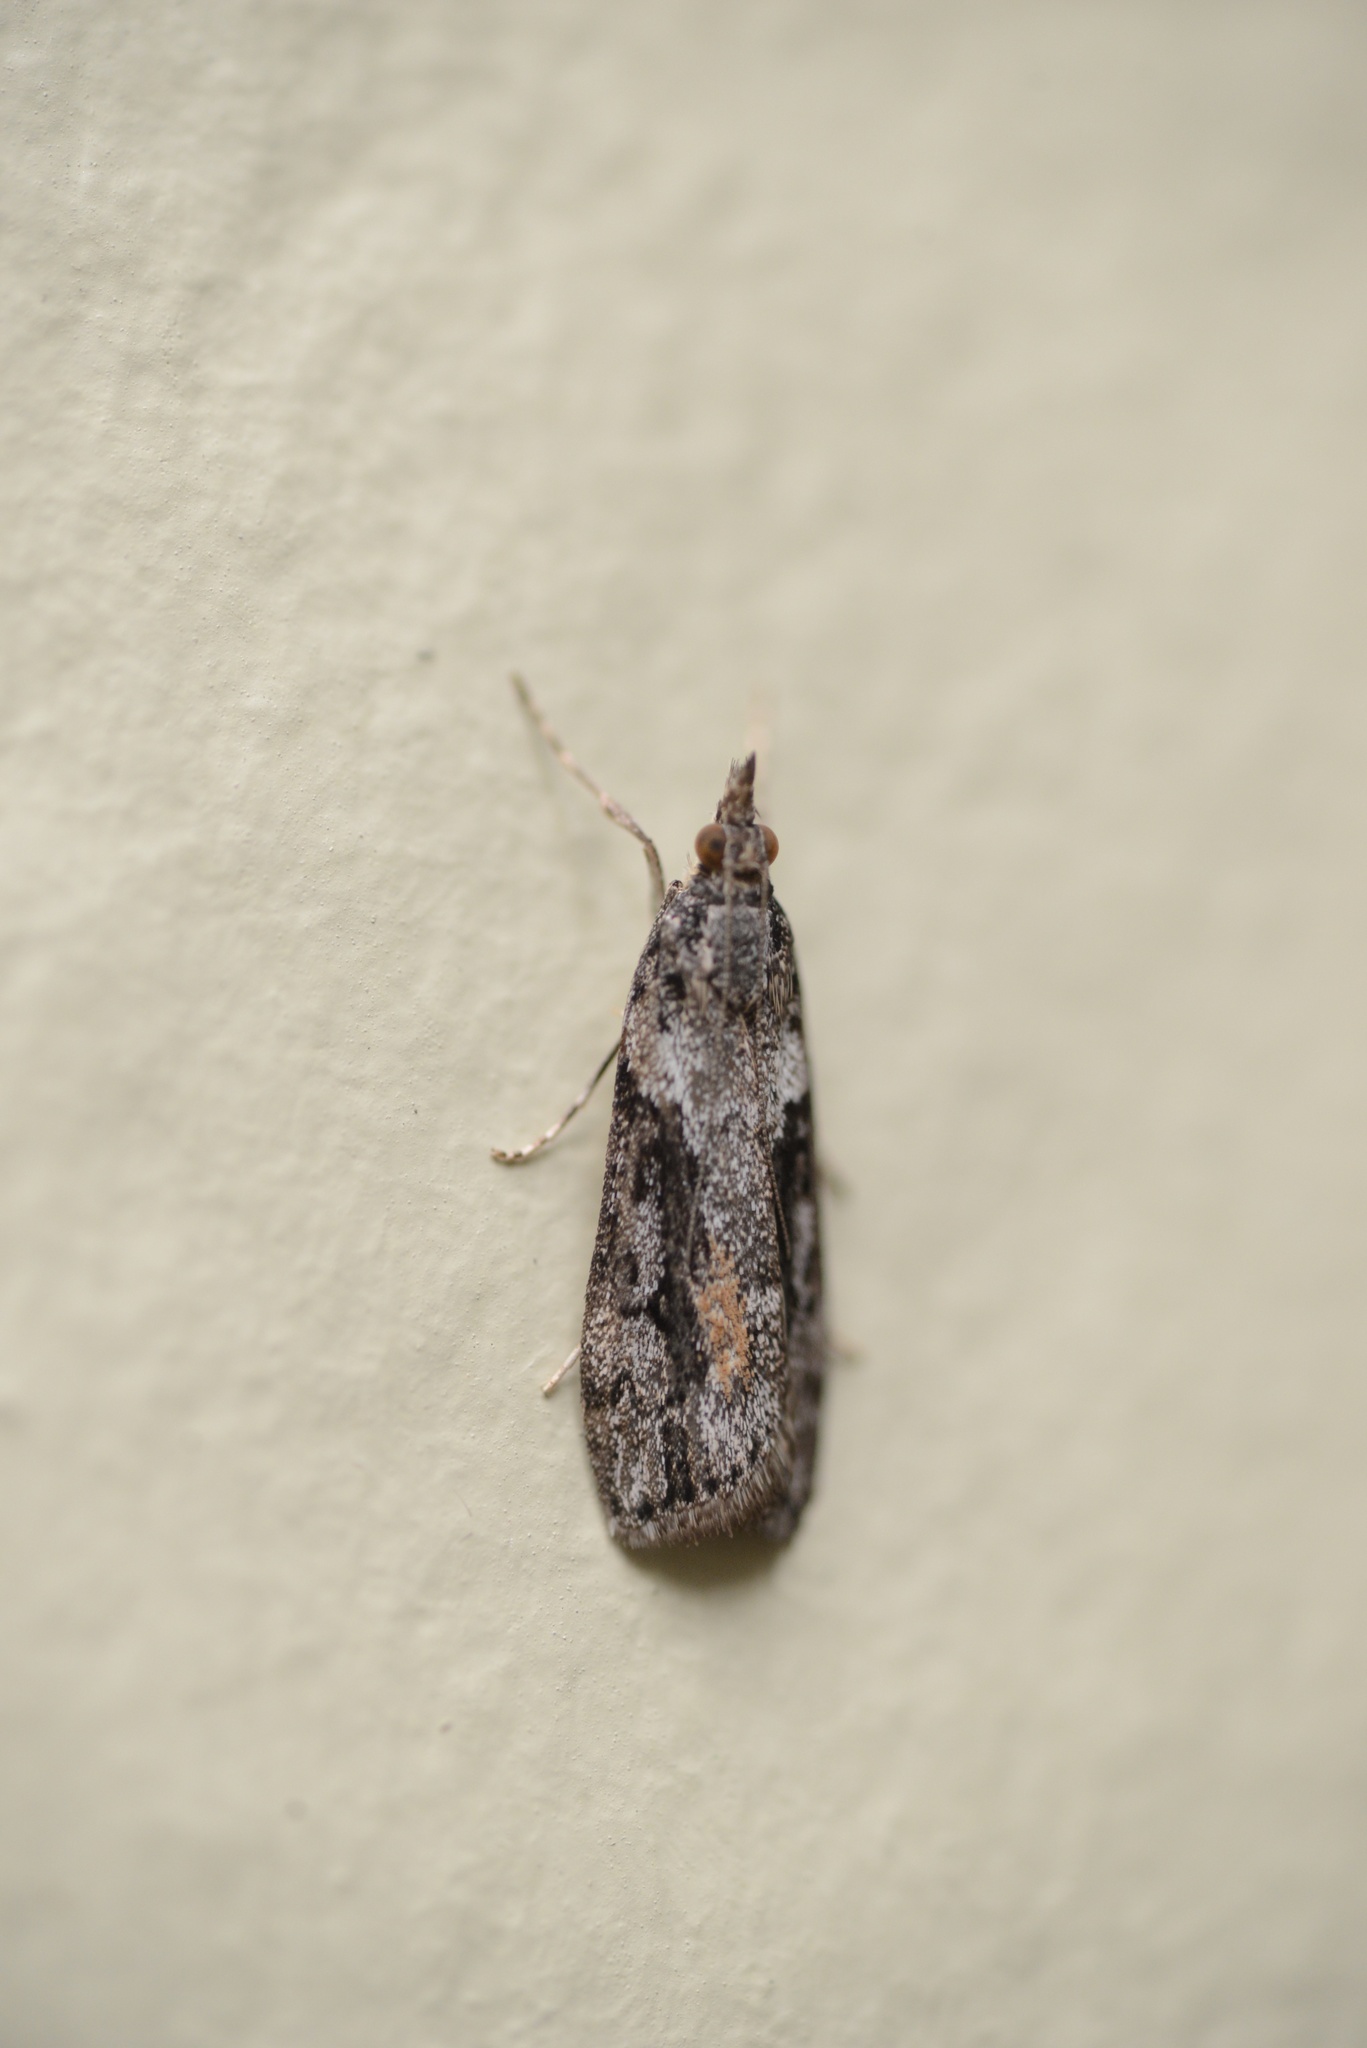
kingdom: Animalia
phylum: Arthropoda
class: Insecta
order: Lepidoptera
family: Crambidae
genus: Eudonia
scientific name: Eudonia submarginalis
